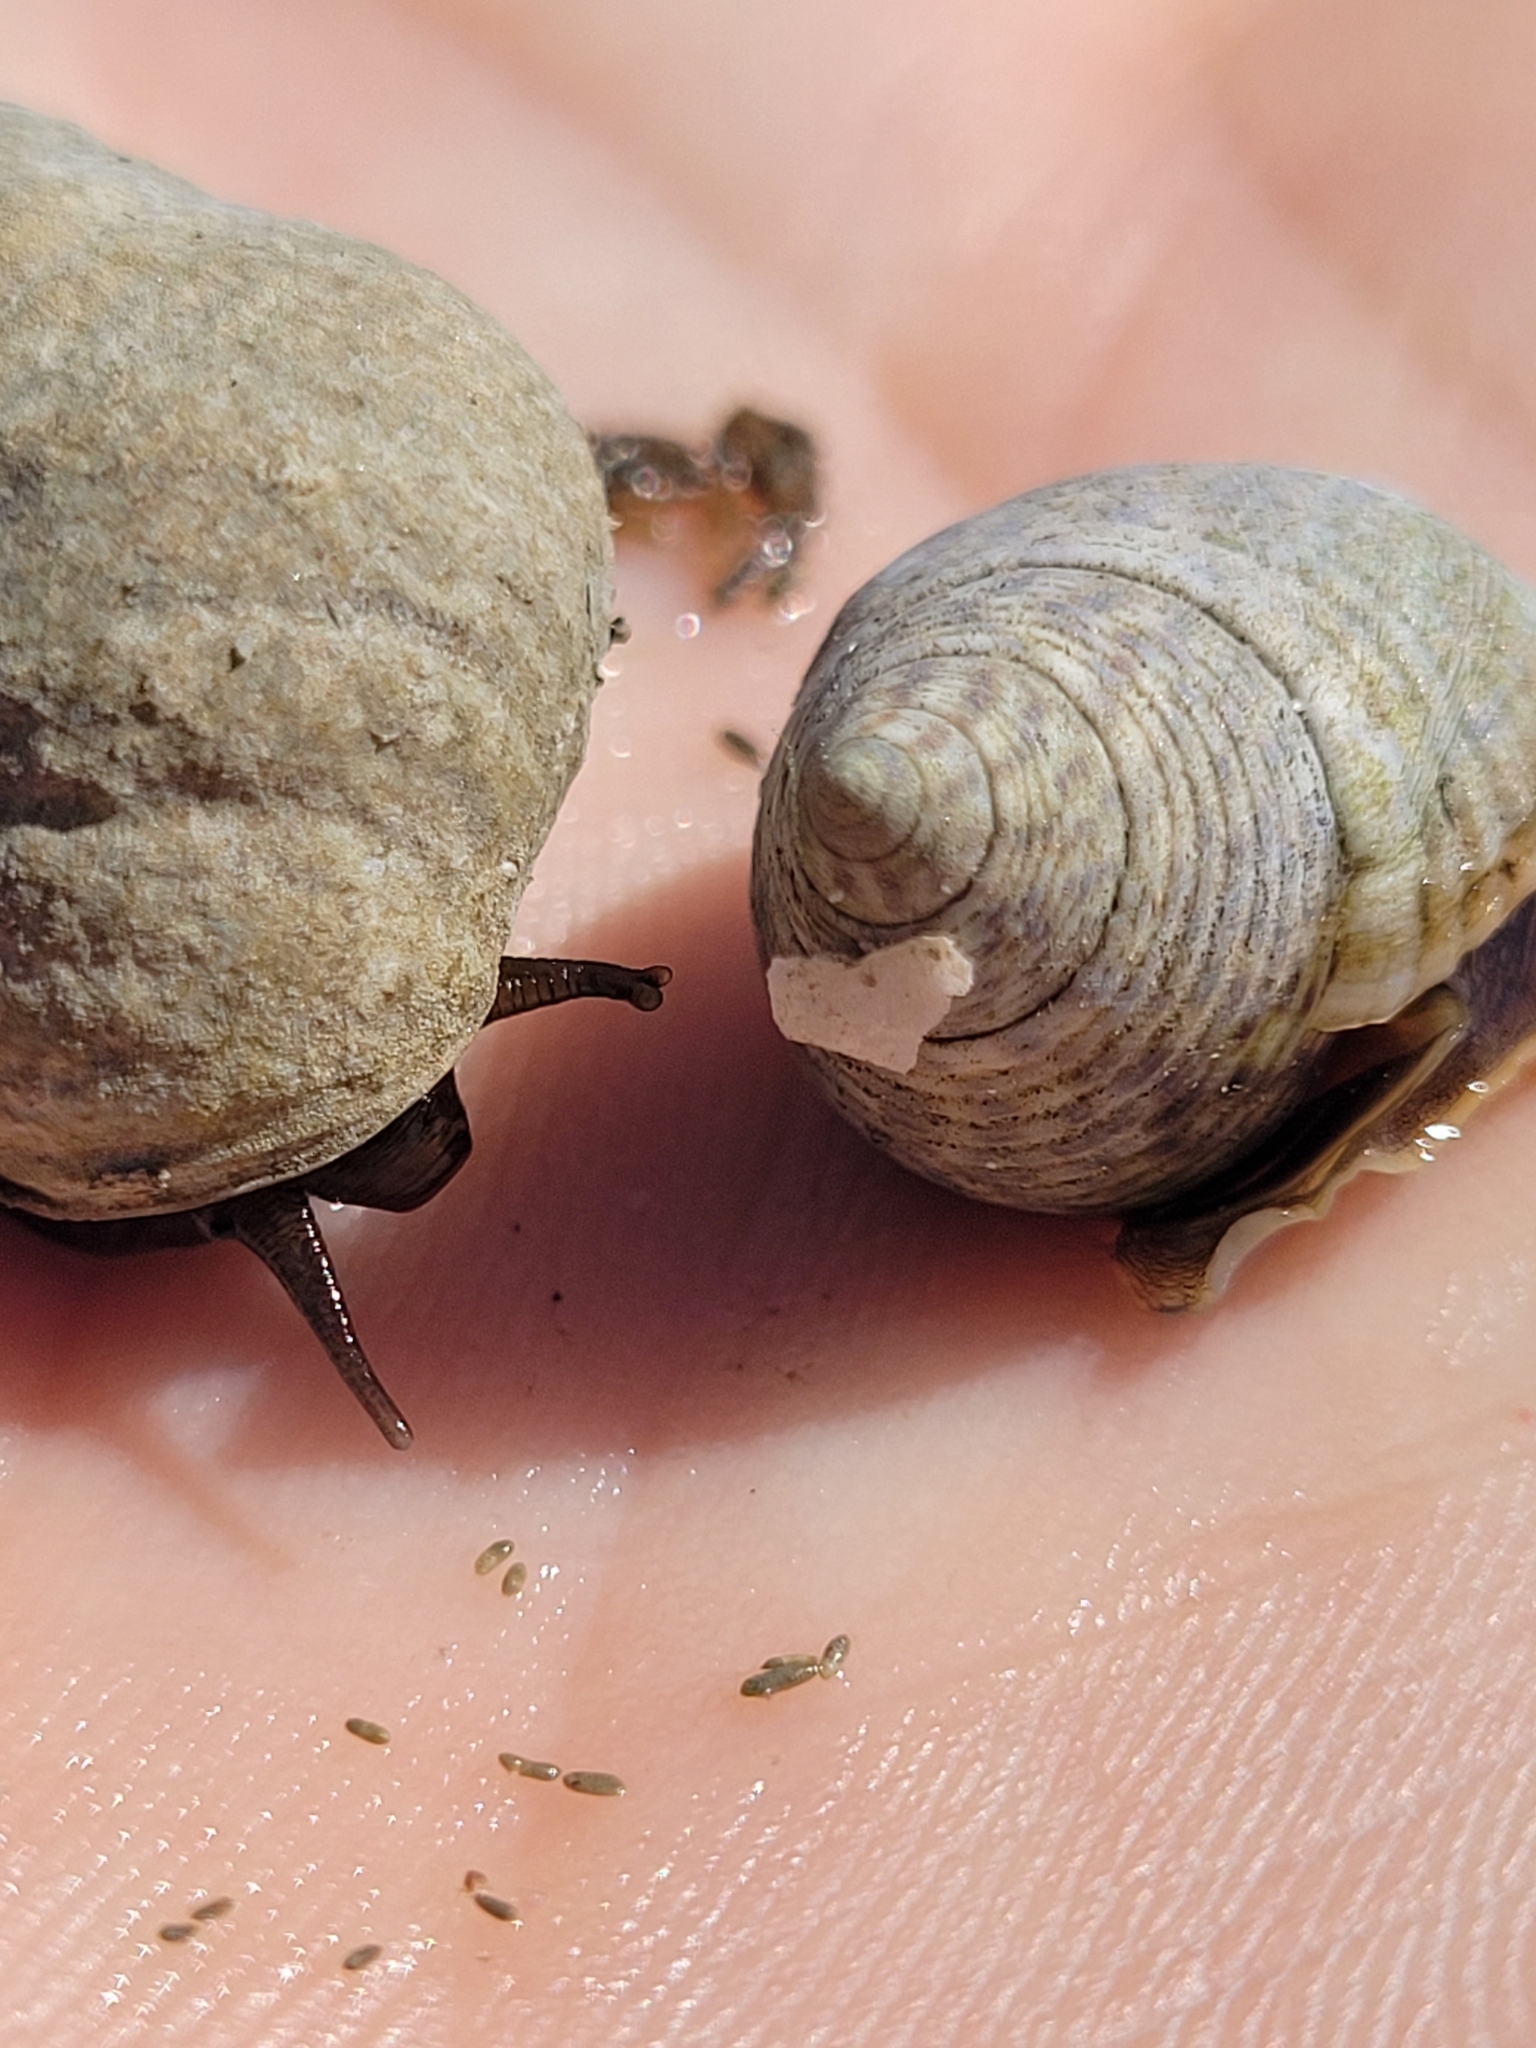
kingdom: Animalia
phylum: Mollusca
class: Gastropoda
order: Littorinimorpha
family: Littorinidae
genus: Littoraria
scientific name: Littoraria irrorata
